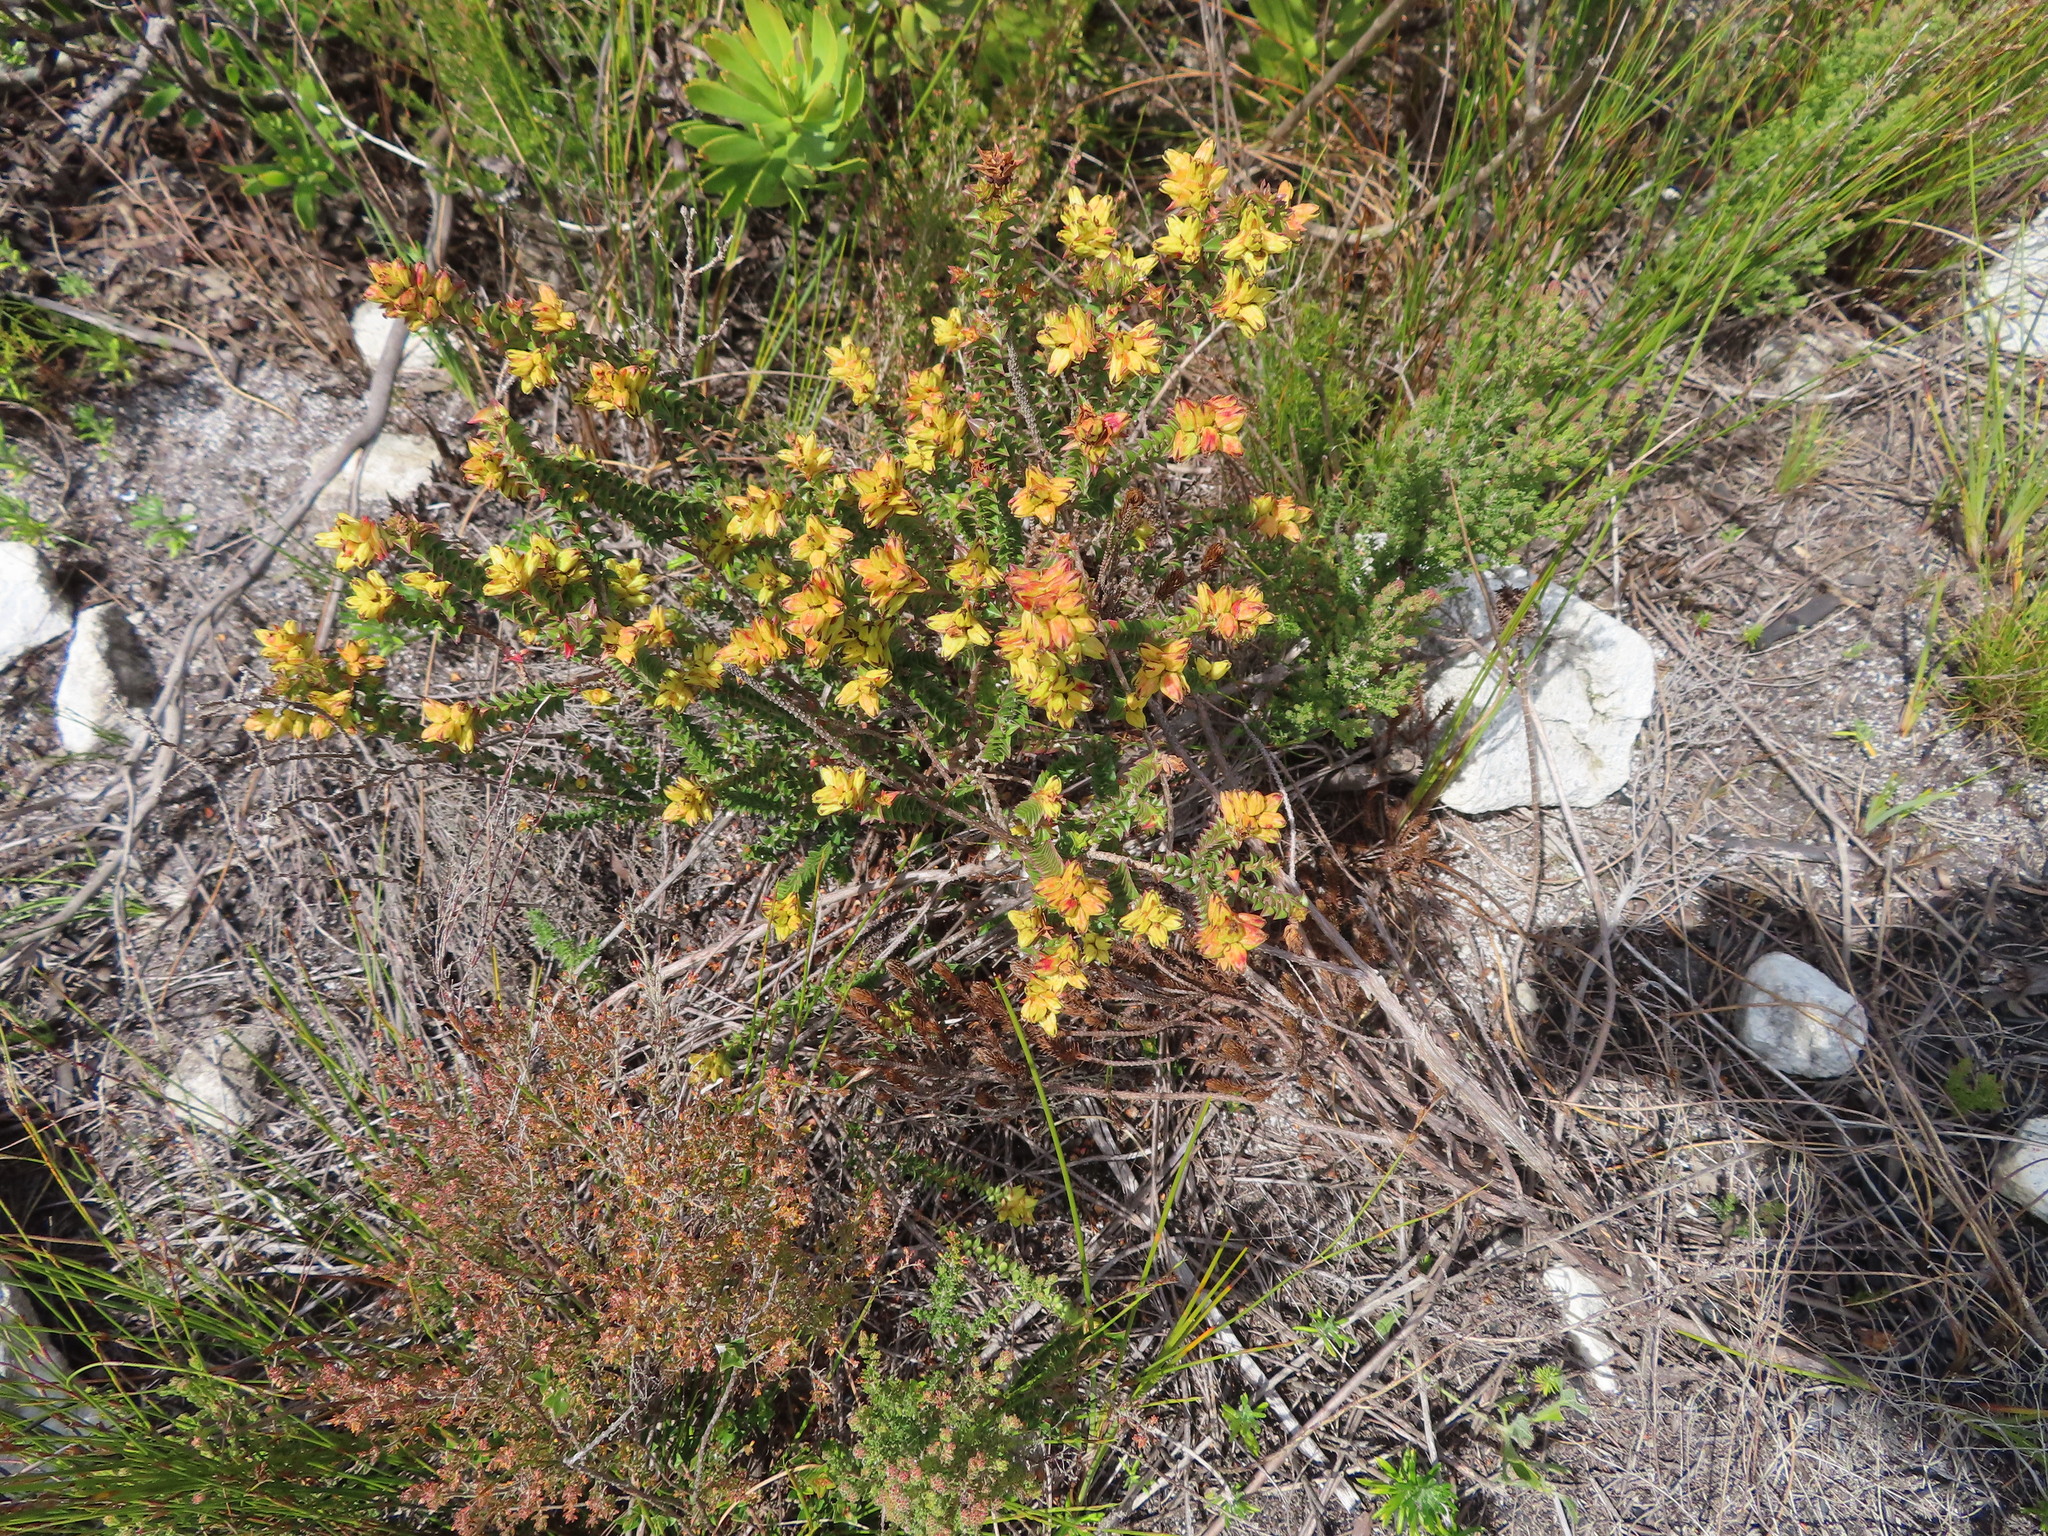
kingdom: Plantae
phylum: Tracheophyta
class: Magnoliopsida
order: Myrtales
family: Penaeaceae
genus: Penaea
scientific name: Penaea mucronata
